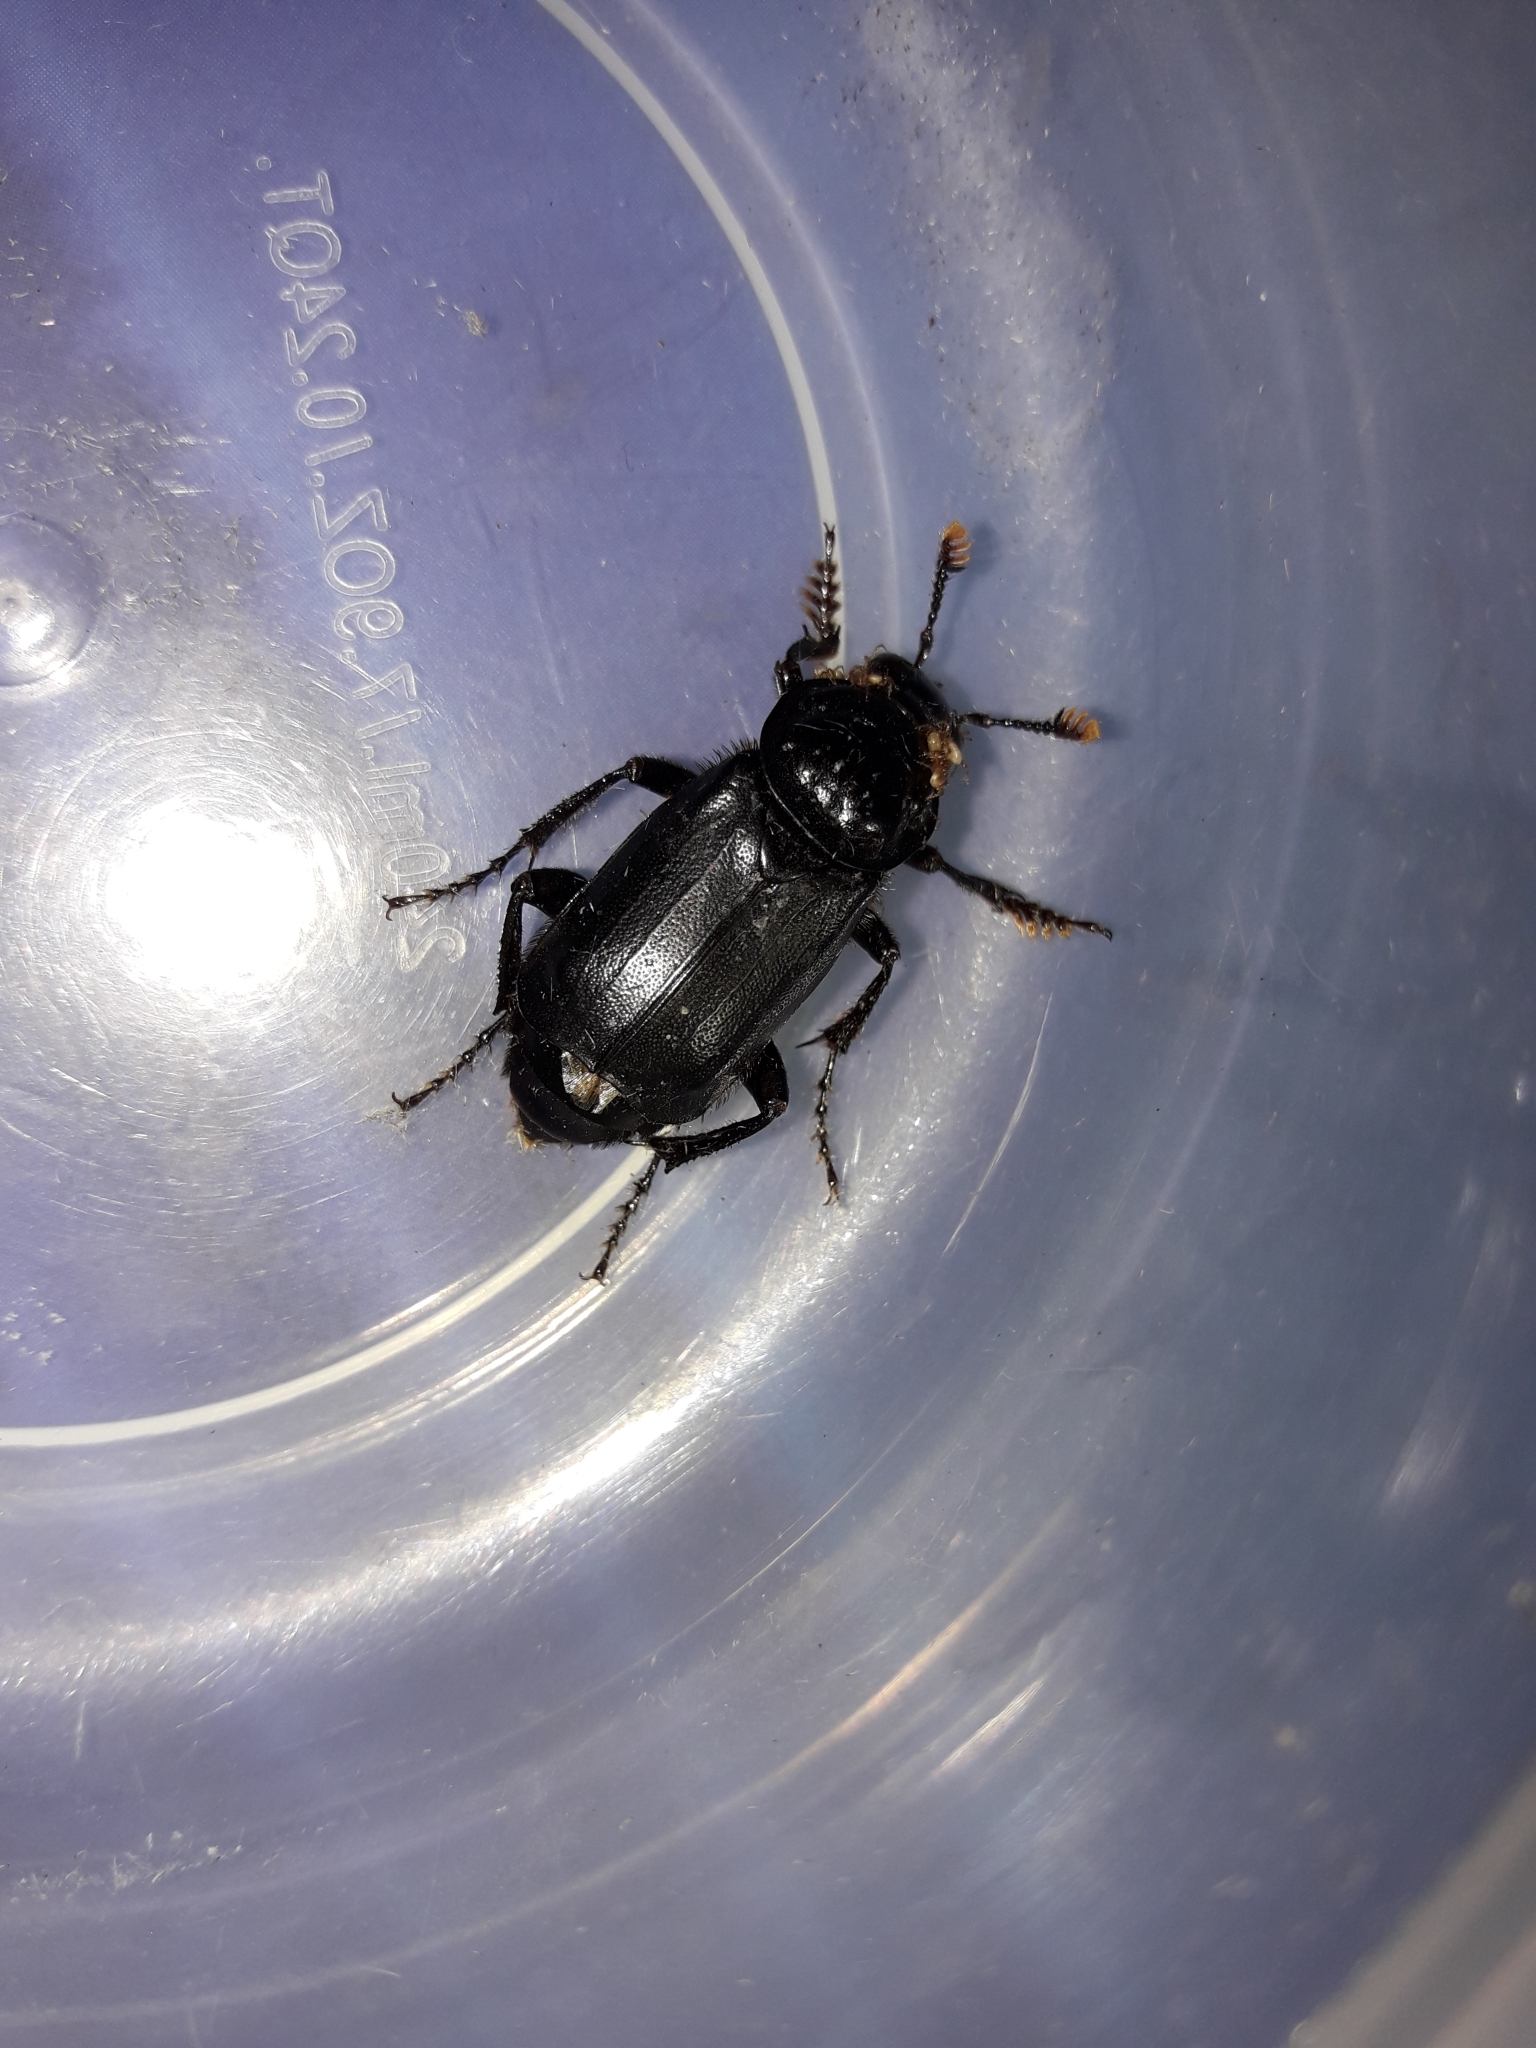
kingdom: Animalia
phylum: Arthropoda
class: Insecta
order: Coleoptera
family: Staphylinidae
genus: Nicrophorus
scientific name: Nicrophorus humator
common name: Black sexton beetle
